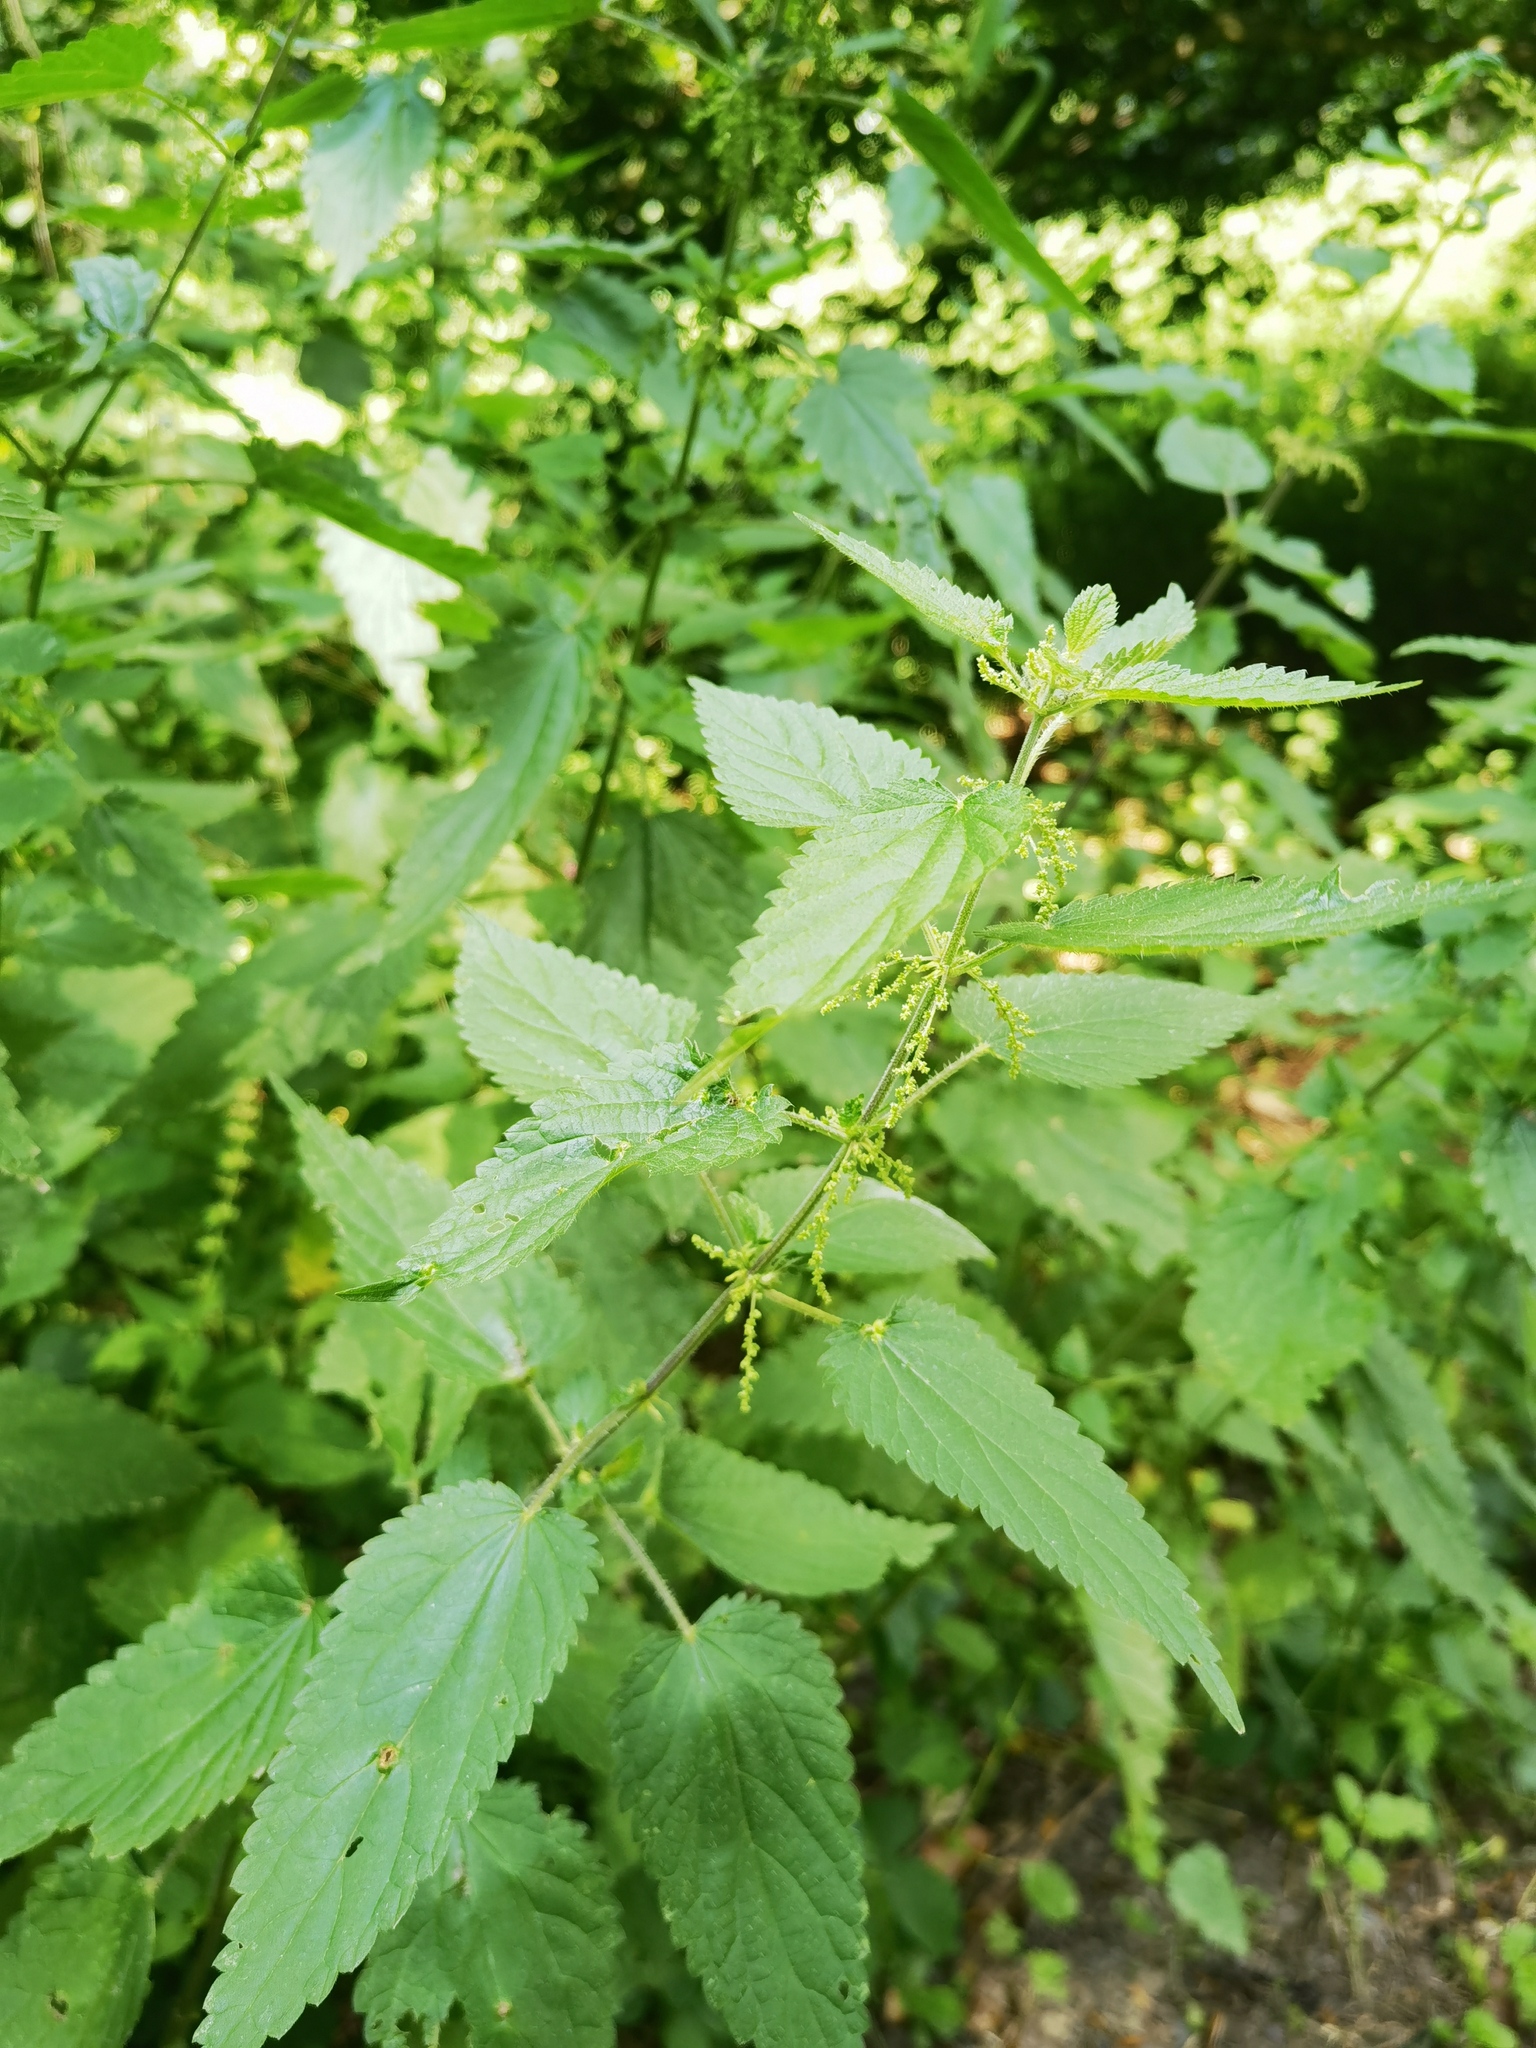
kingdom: Plantae
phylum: Tracheophyta
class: Magnoliopsida
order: Rosales
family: Urticaceae
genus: Urtica
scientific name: Urtica dioica
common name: Common nettle
